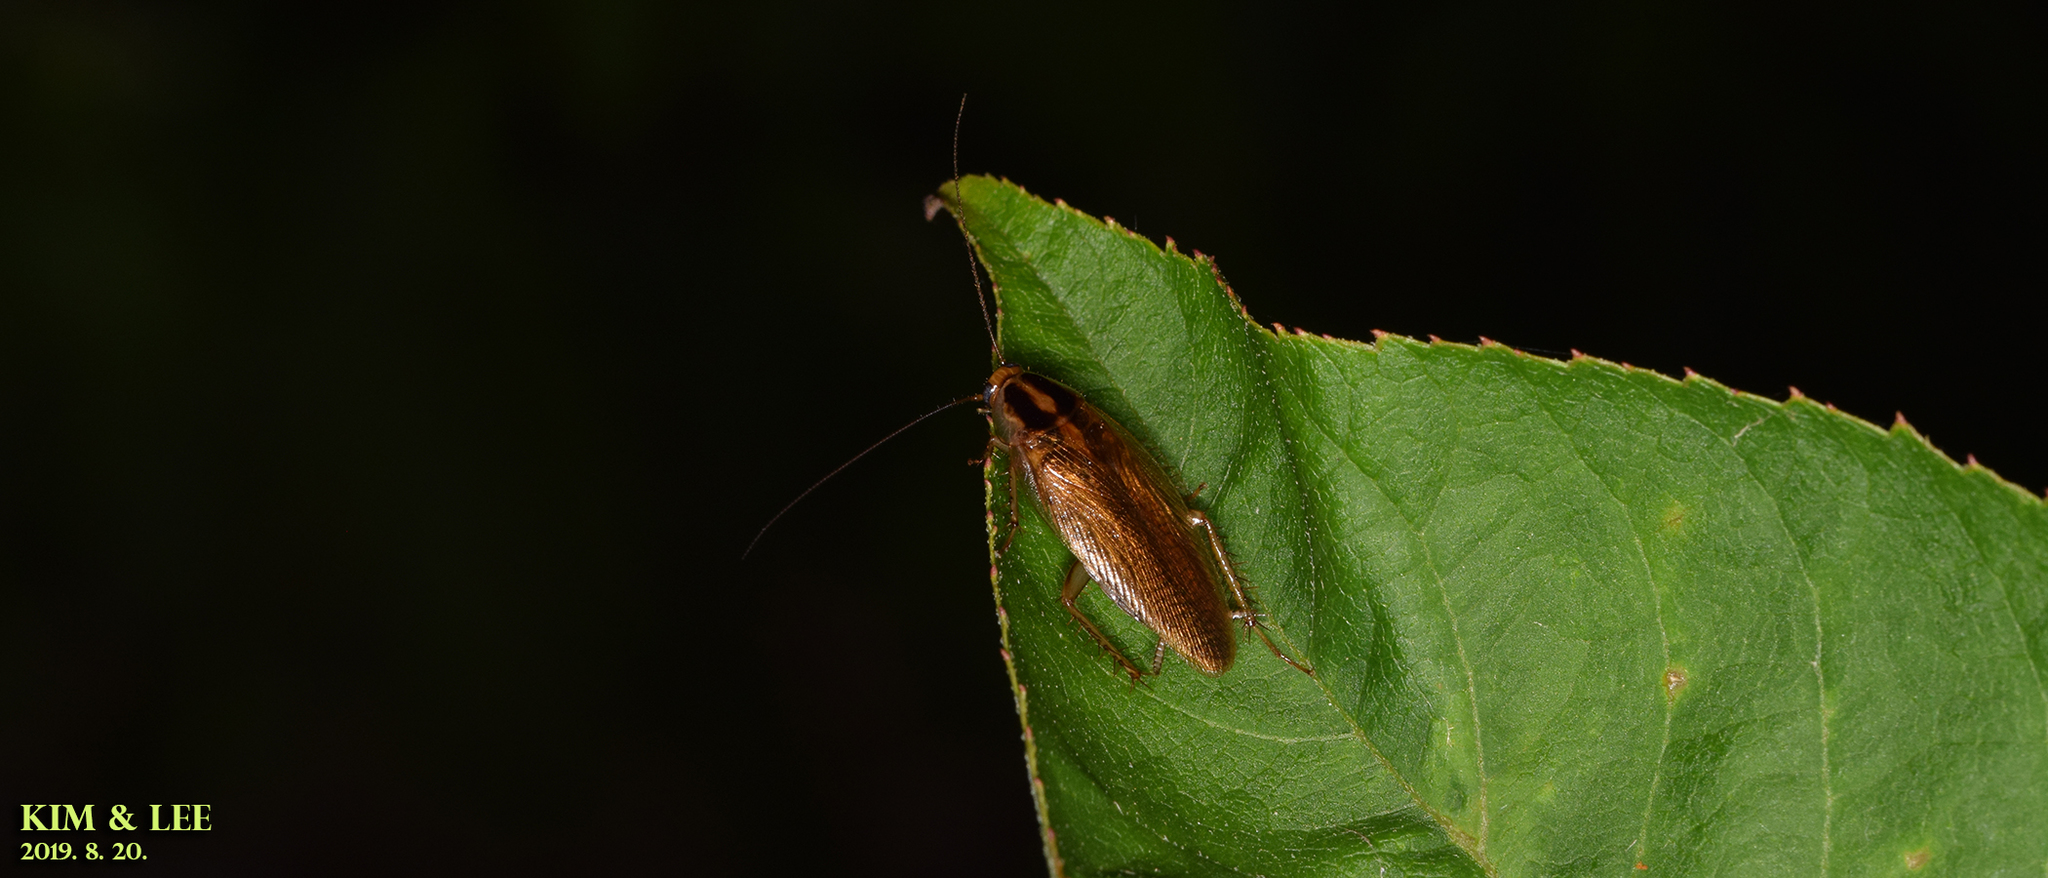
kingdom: Animalia
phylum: Arthropoda
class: Insecta
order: Blattodea
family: Ectobiidae
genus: Blattella
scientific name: Blattella nipponica
